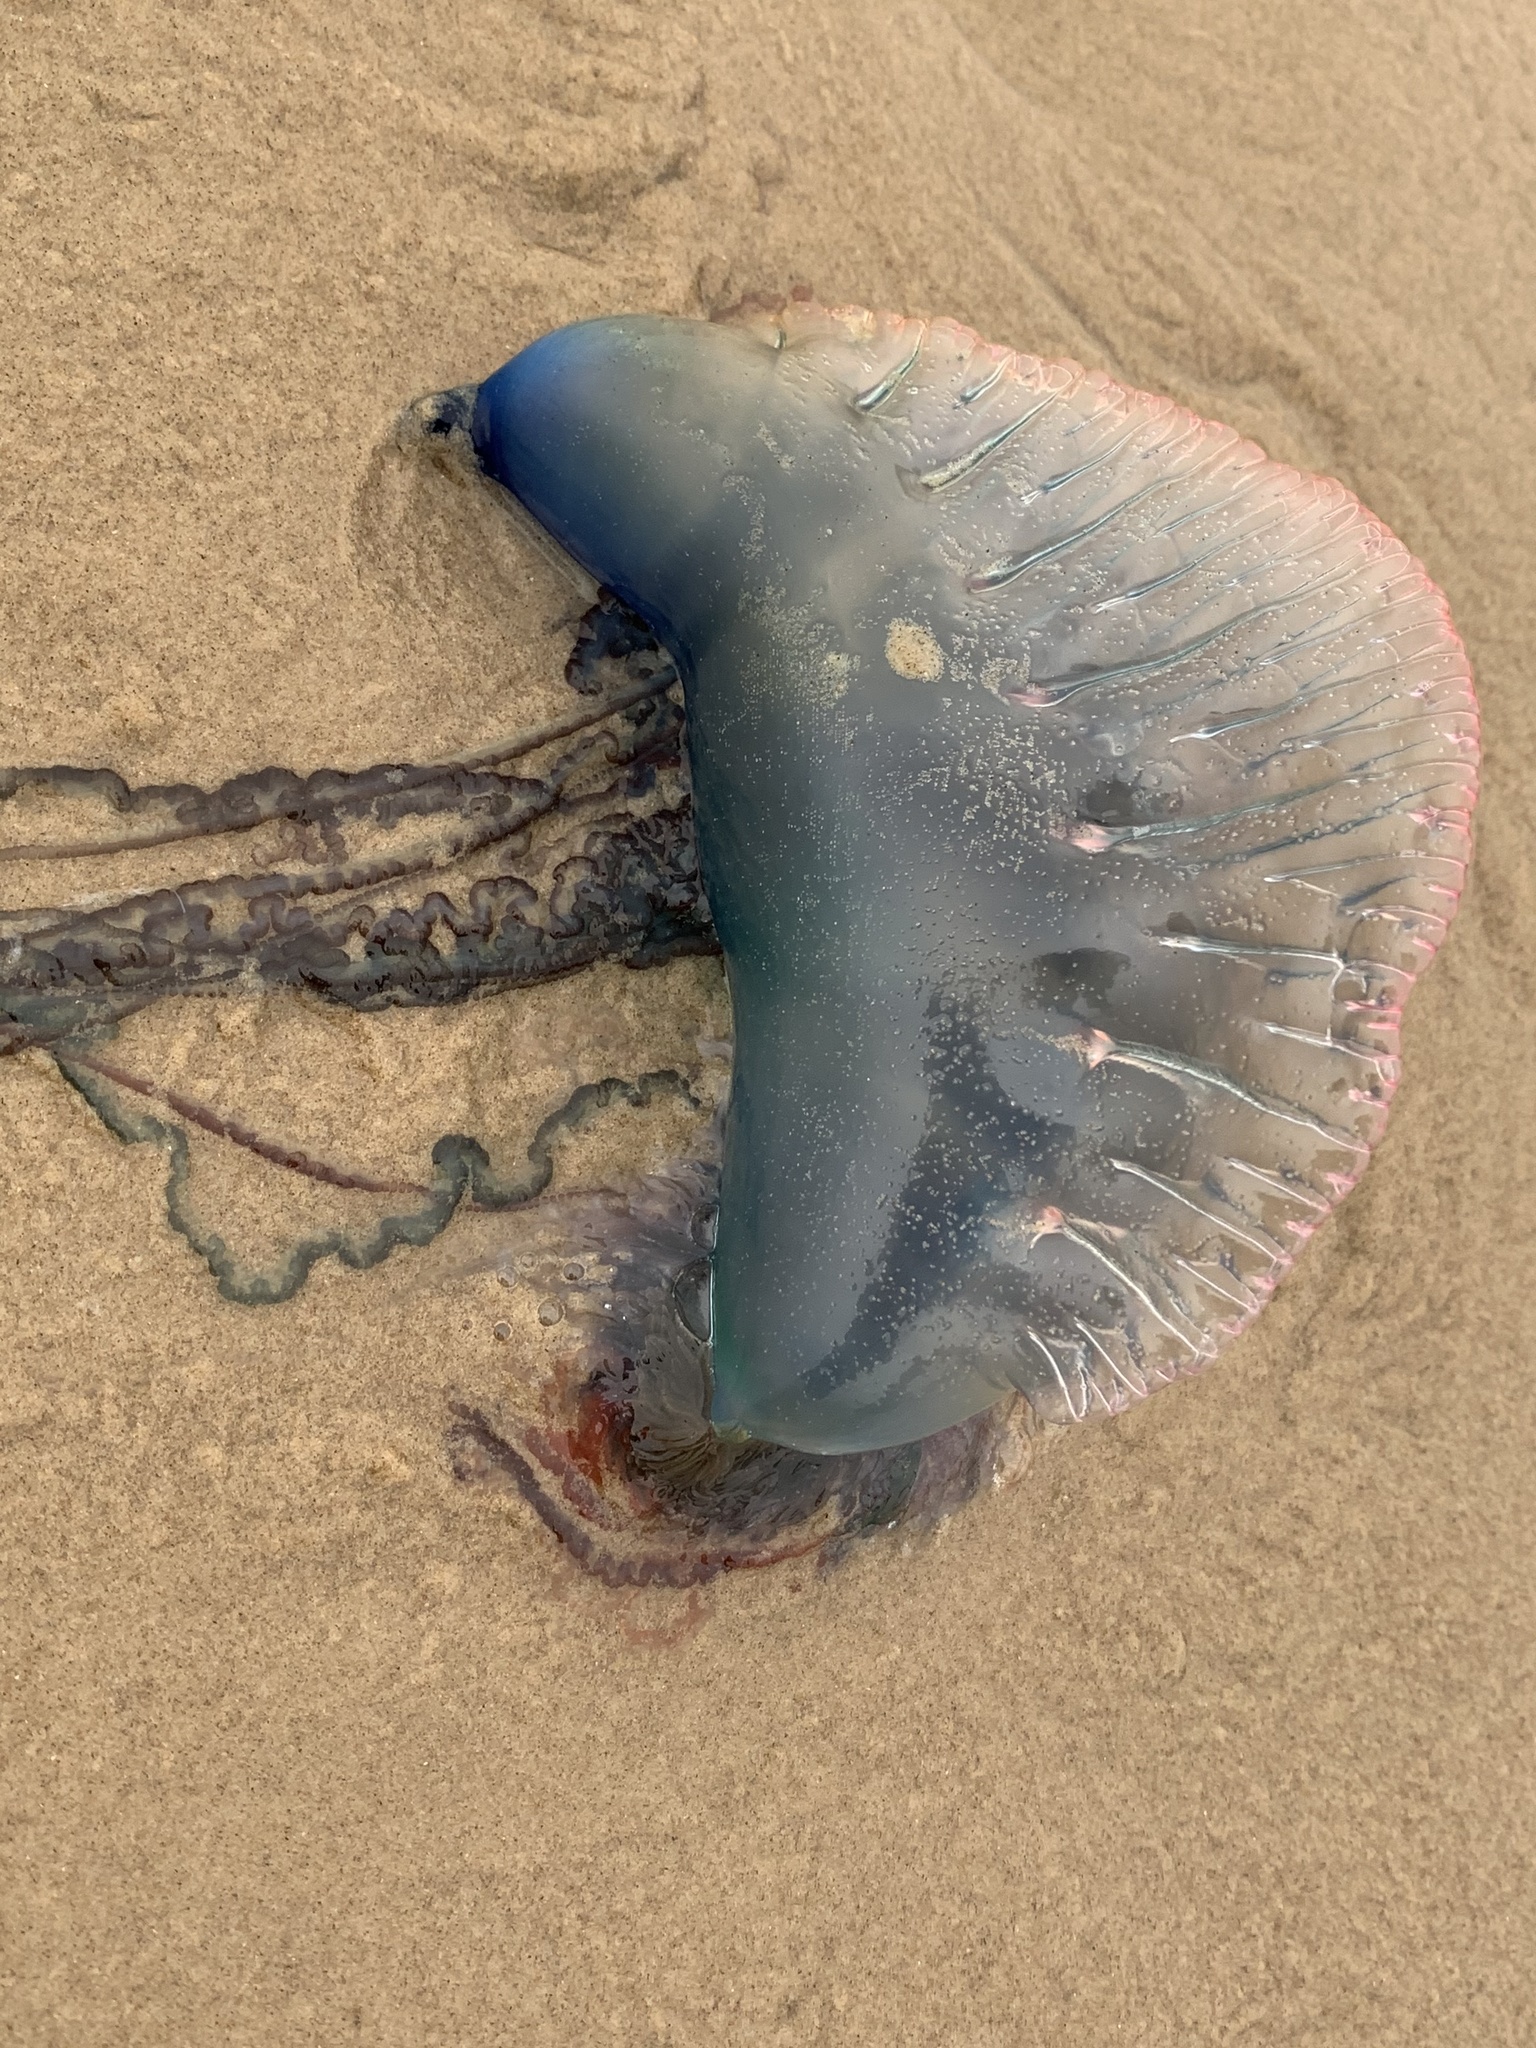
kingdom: Animalia
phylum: Cnidaria
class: Hydrozoa
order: Siphonophorae
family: Physaliidae
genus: Physalia
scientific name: Physalia physalis
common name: Portuguese man-of-war
